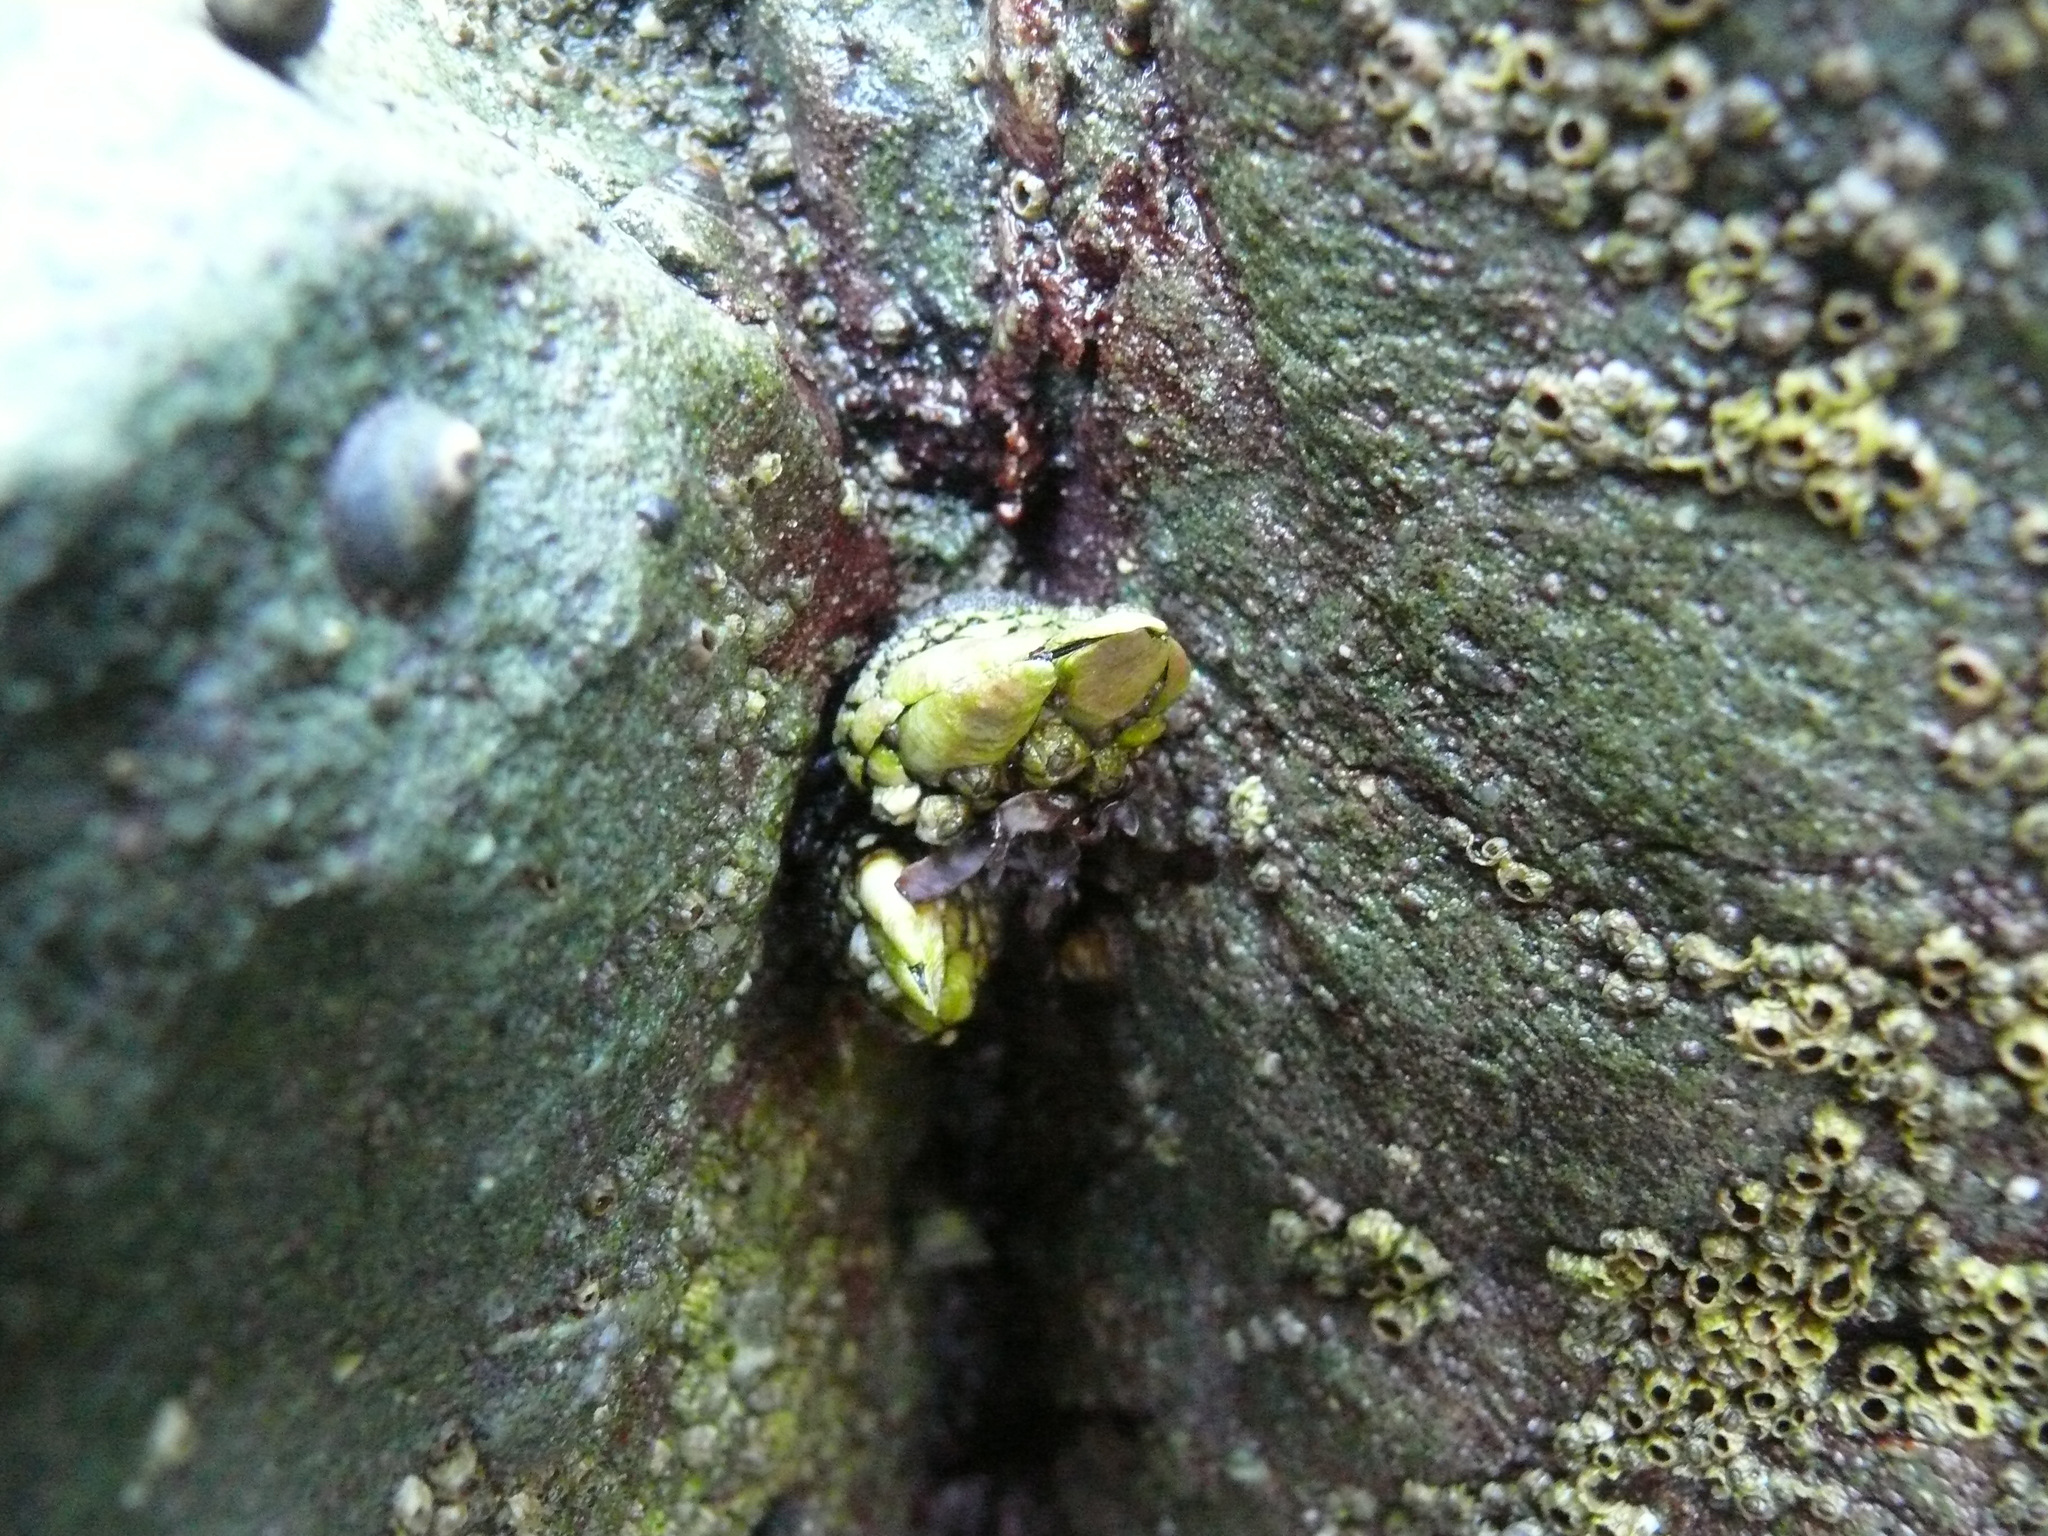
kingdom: Animalia
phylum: Arthropoda
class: Maxillopoda
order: Pedunculata
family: Pollicipedidae
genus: Pollicipes
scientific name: Pollicipes polymerus
